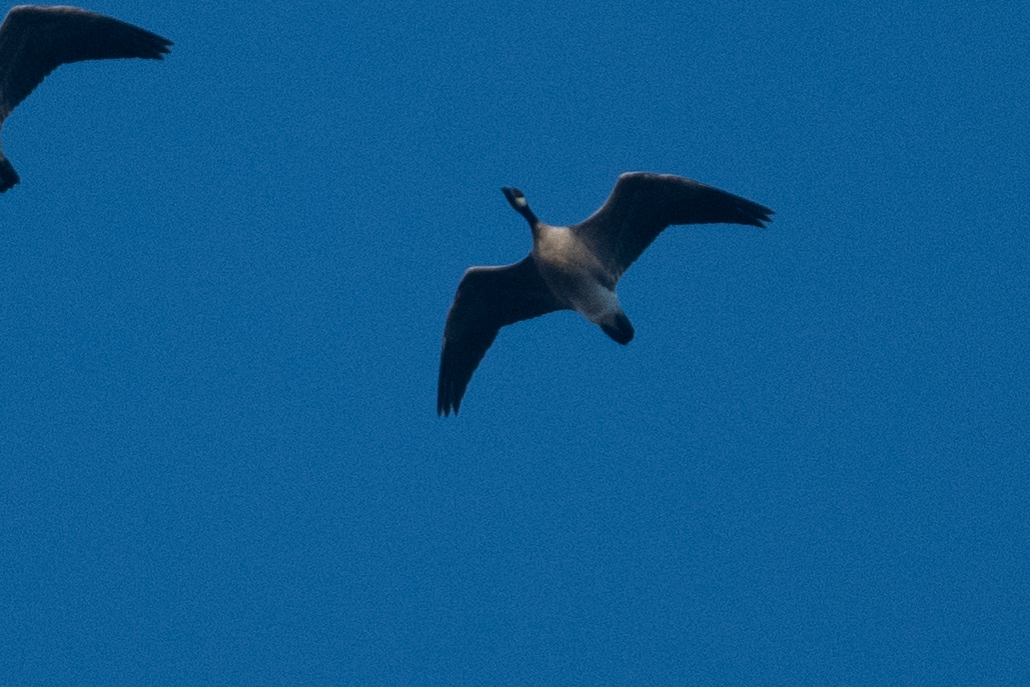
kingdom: Animalia
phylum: Chordata
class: Aves
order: Anseriformes
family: Anatidae
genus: Branta
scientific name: Branta hutchinsii
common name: Cackling goose
